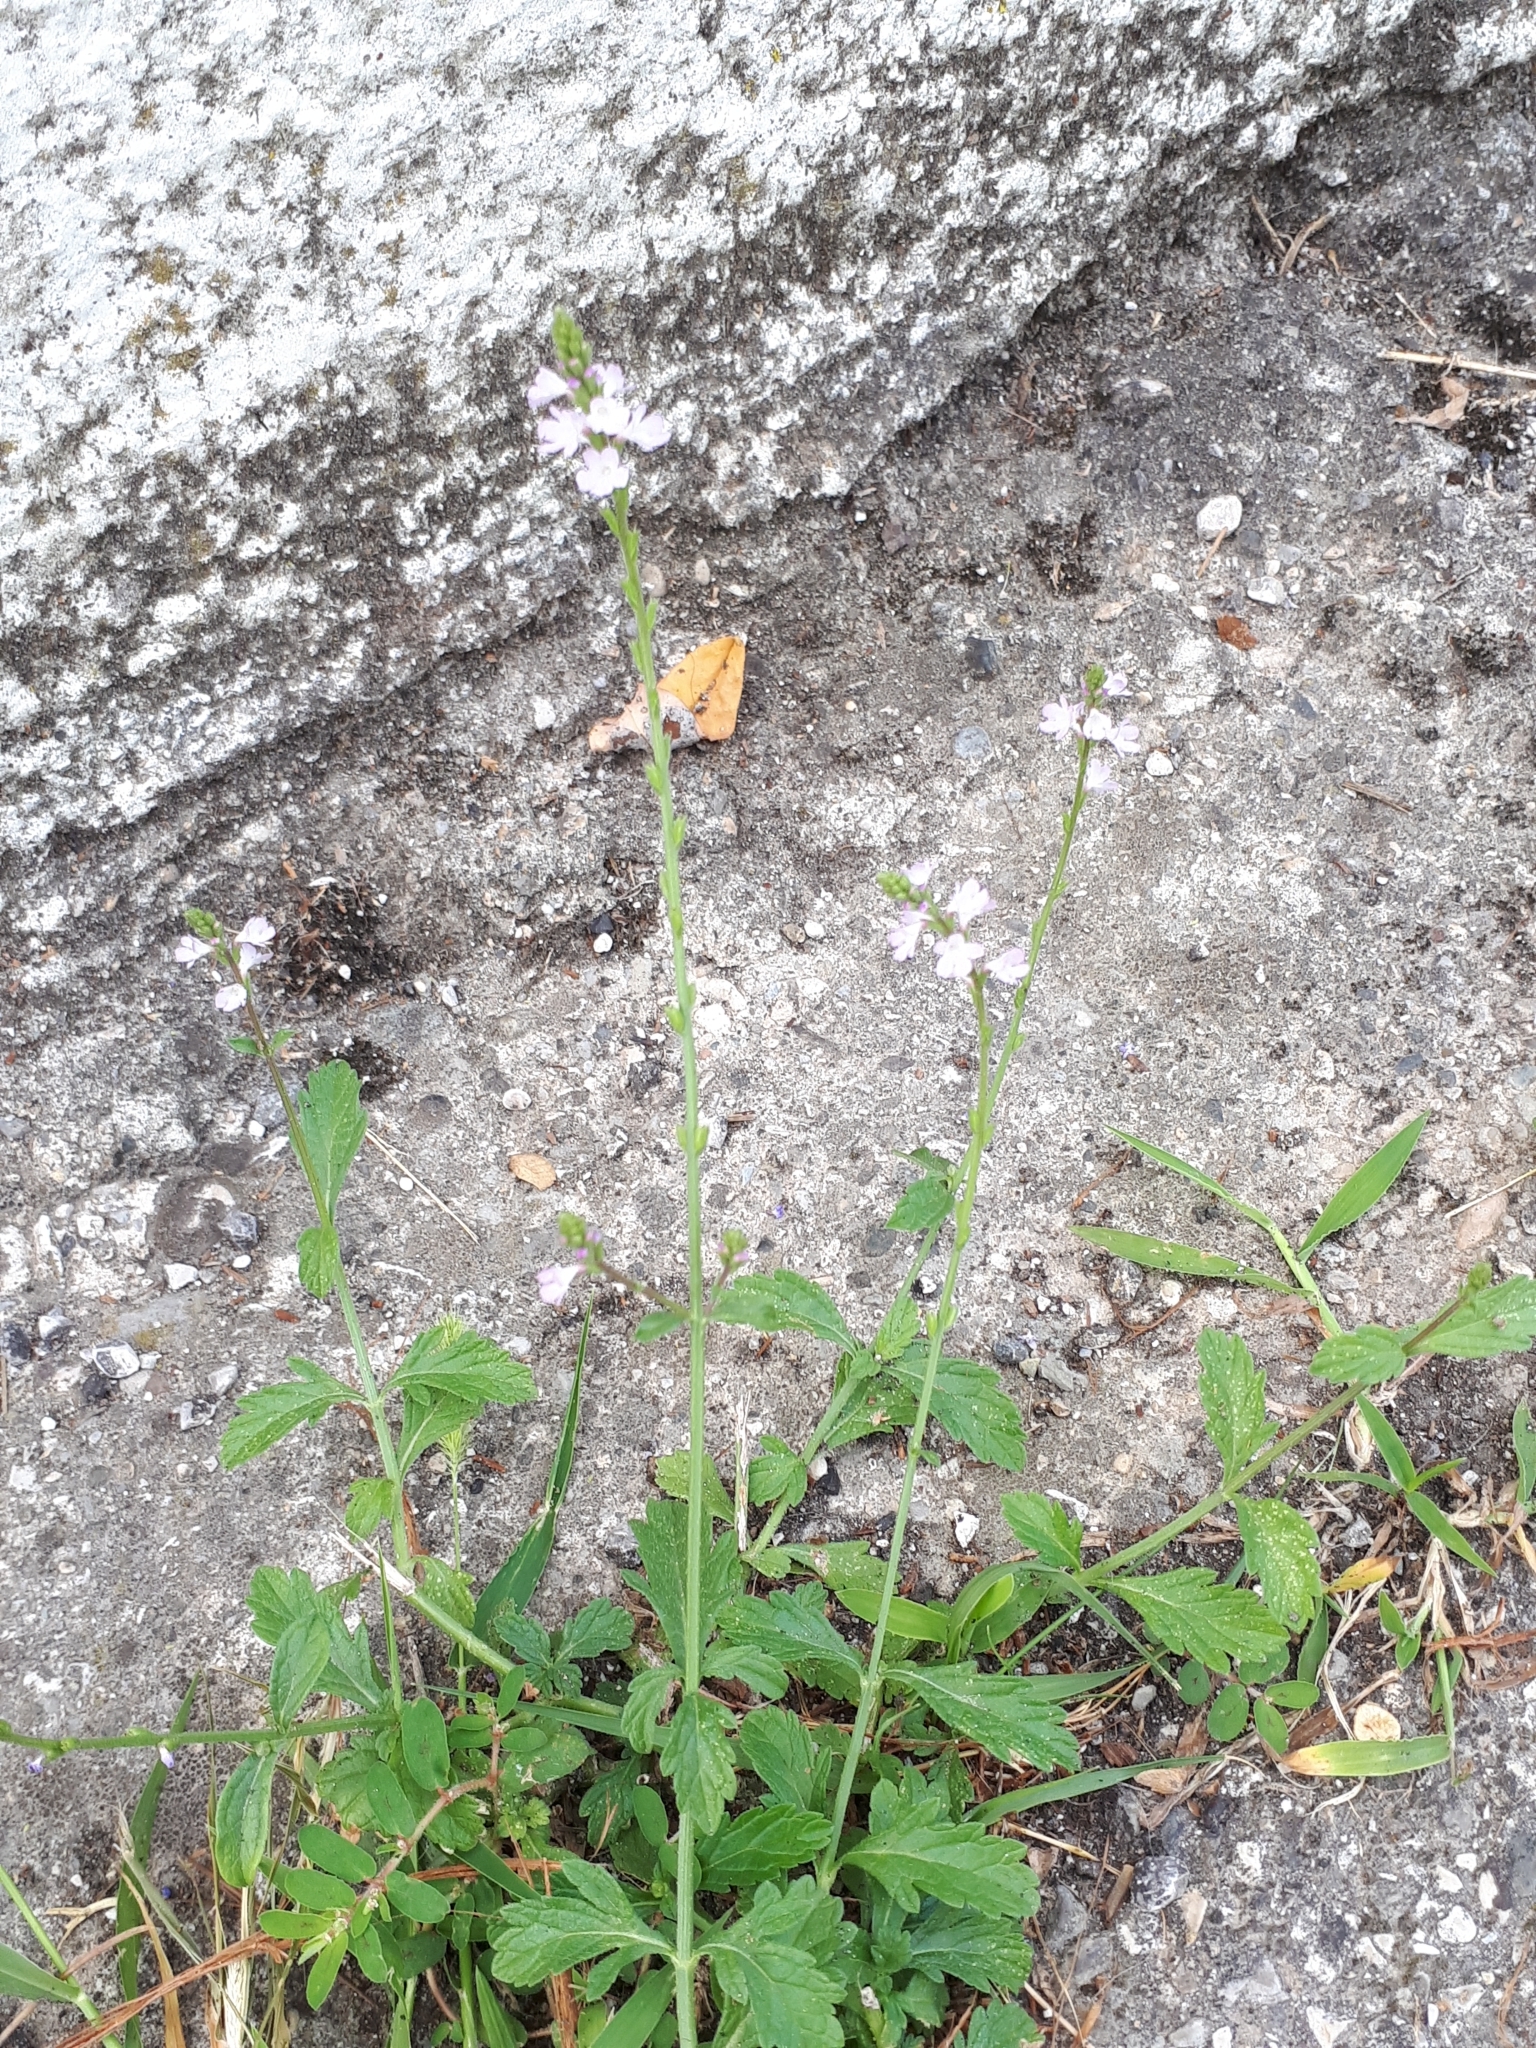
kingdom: Plantae
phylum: Tracheophyta
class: Magnoliopsida
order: Lamiales
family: Verbenaceae
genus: Verbena
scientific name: Verbena officinalis
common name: Vervain
